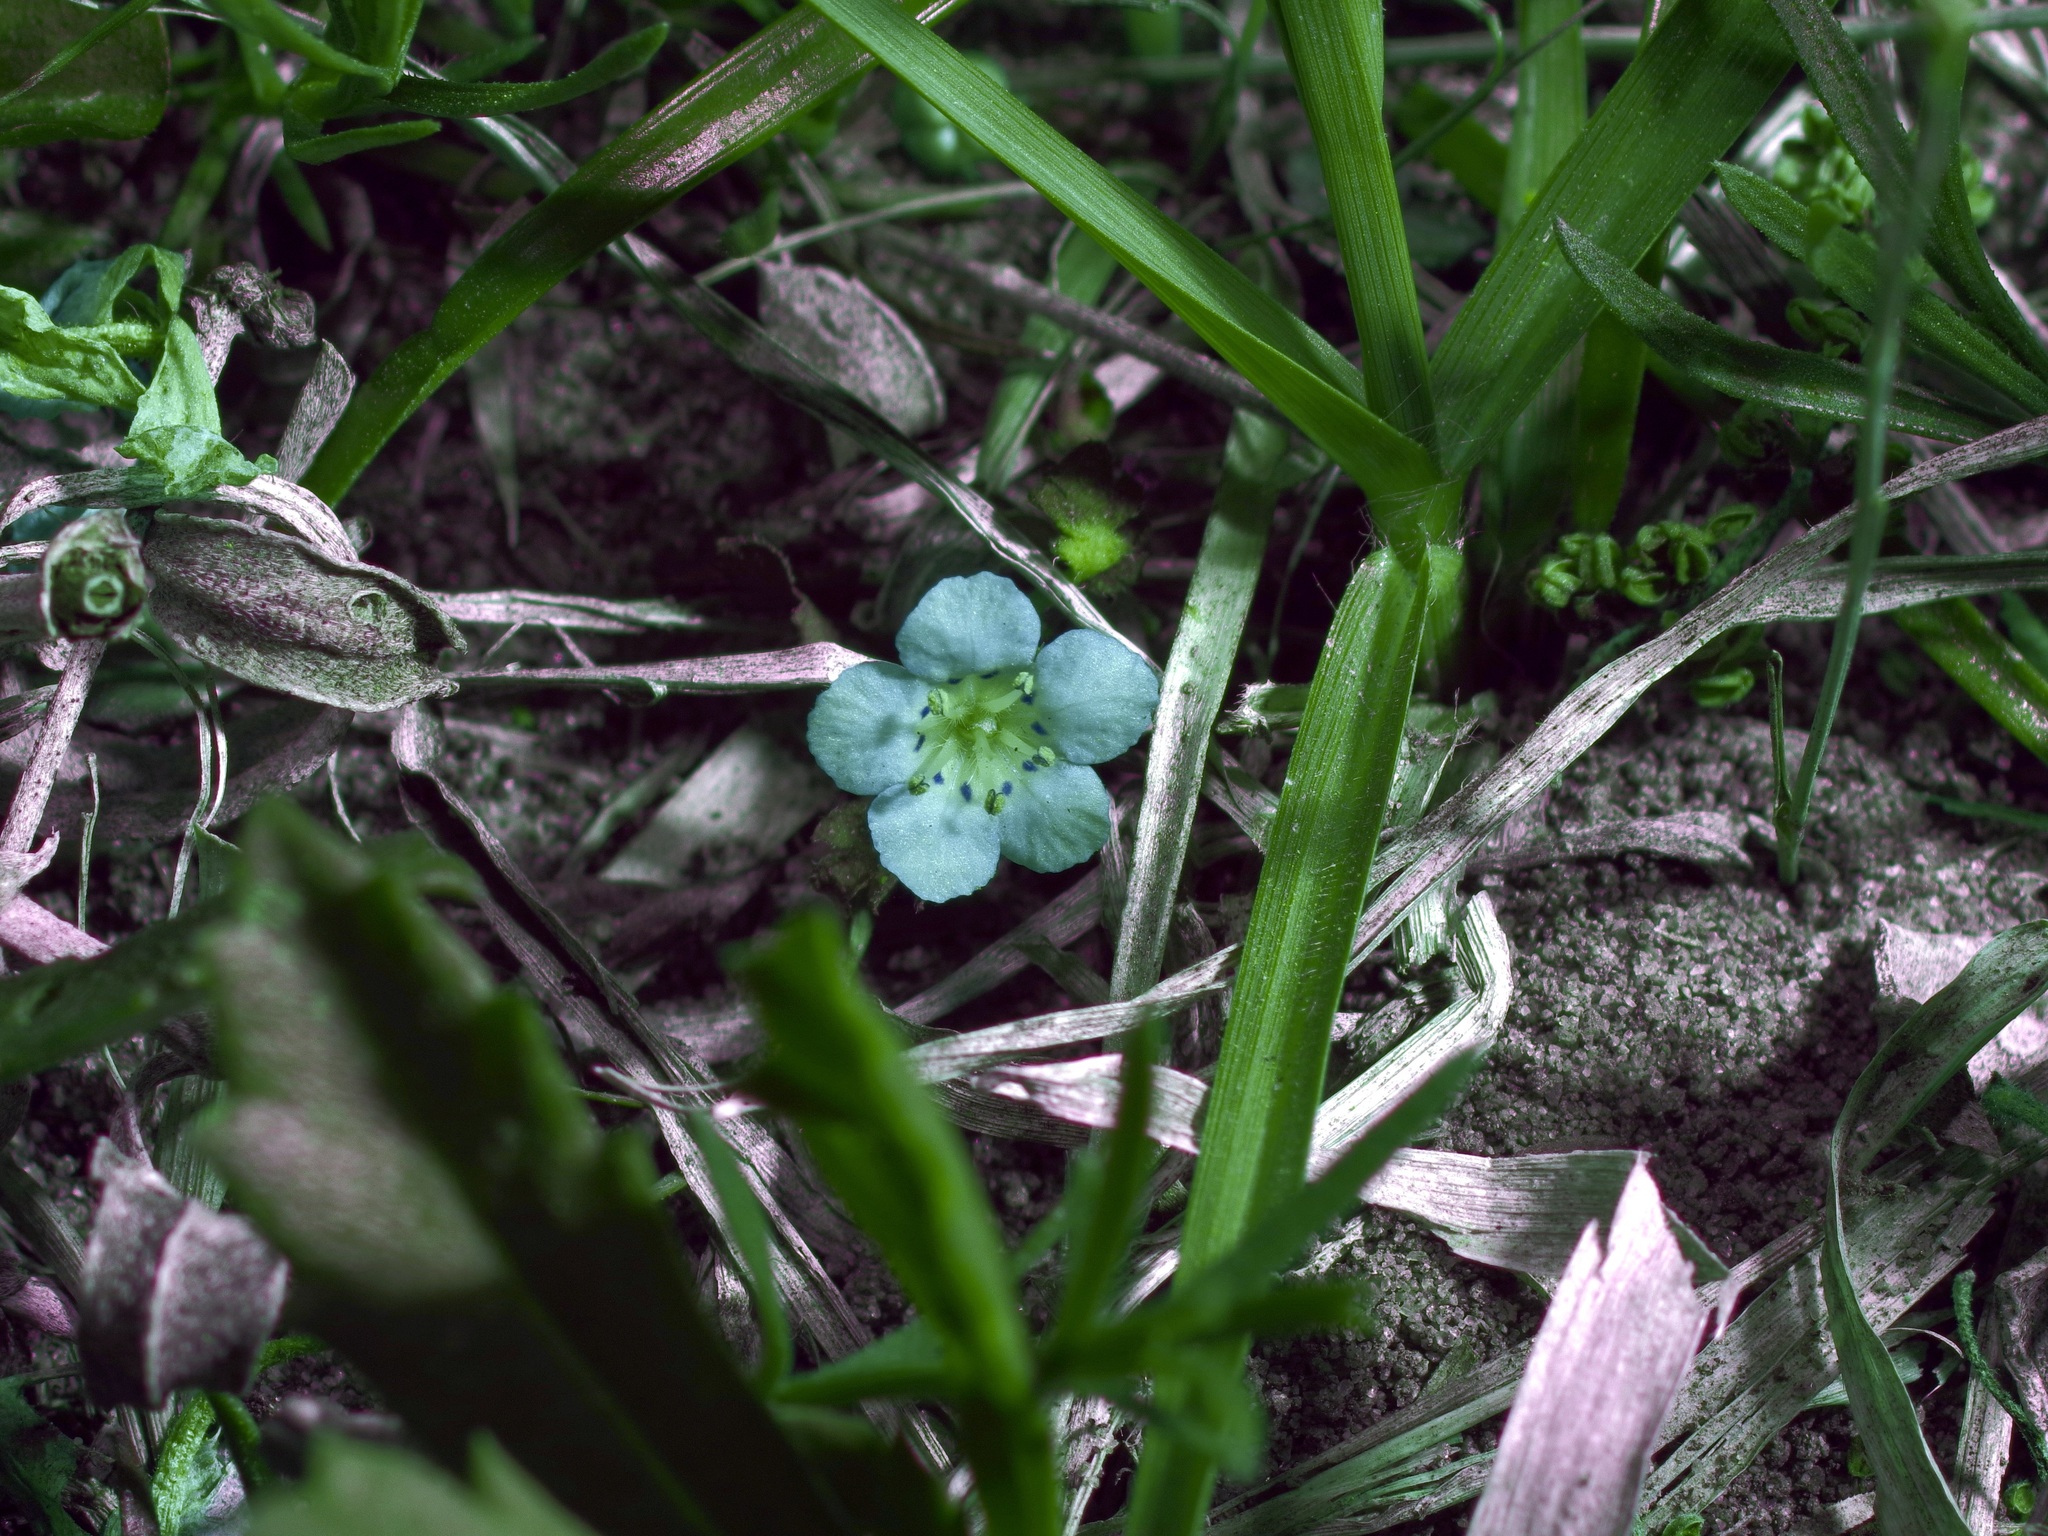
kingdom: Plantae
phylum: Tracheophyta
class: Magnoliopsida
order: Boraginales
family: Hydrophyllaceae
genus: Phacelia
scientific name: Phacelia glabra
